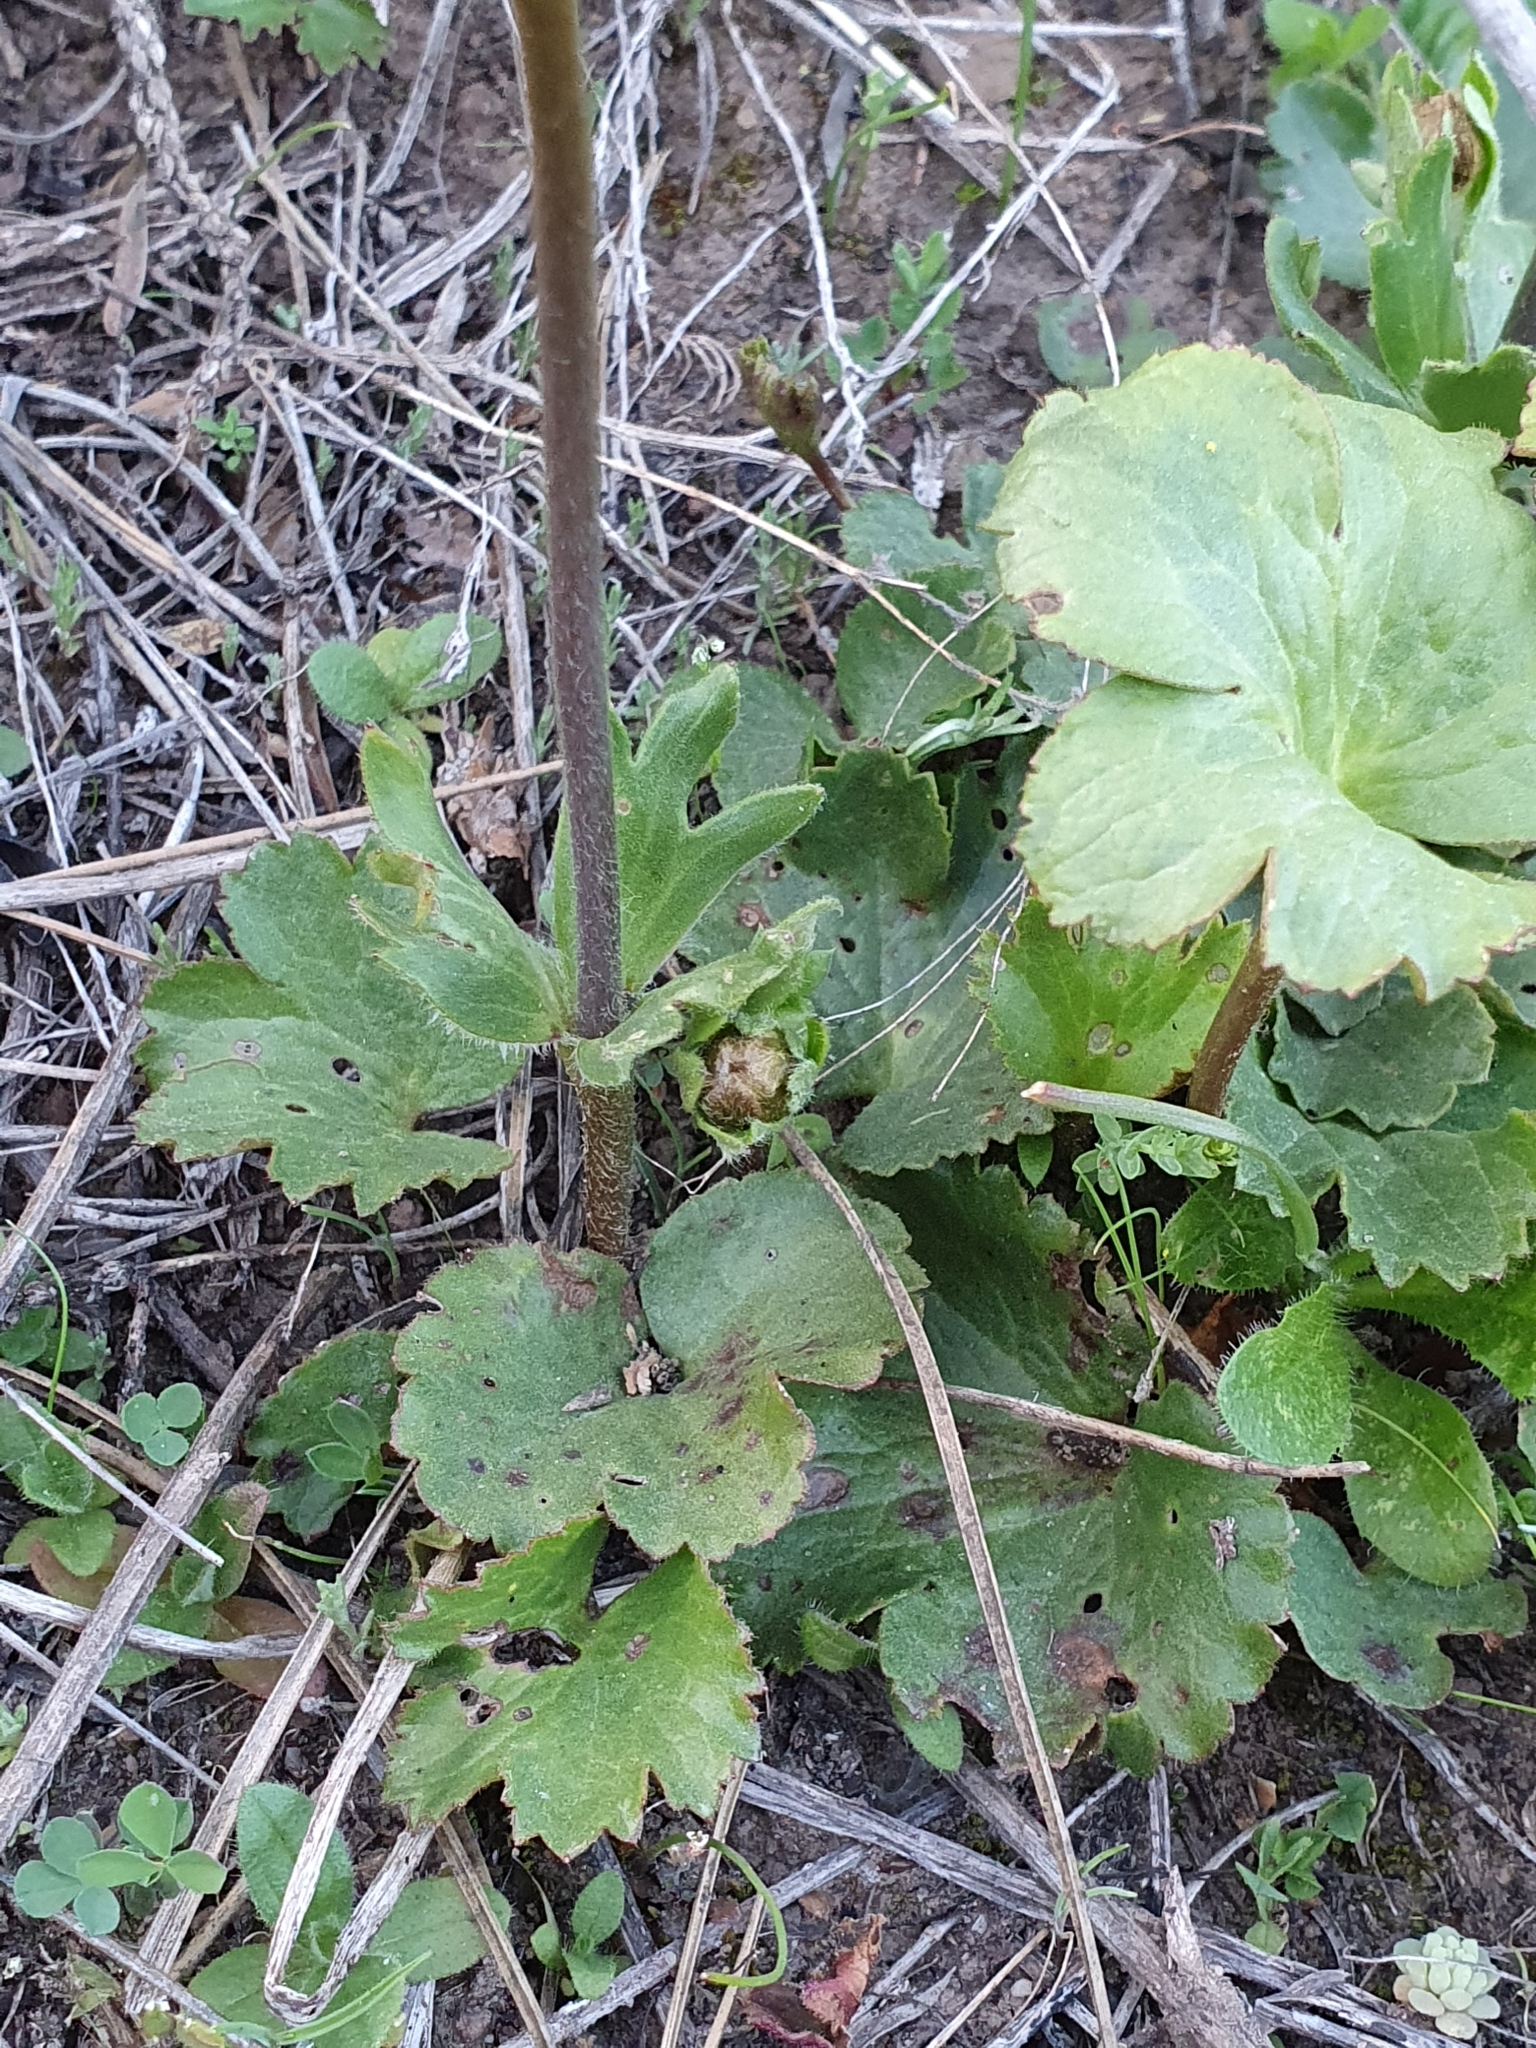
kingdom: Plantae
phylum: Tracheophyta
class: Magnoliopsida
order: Ranunculales
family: Ranunculaceae
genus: Anemone
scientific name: Anemone palmata
